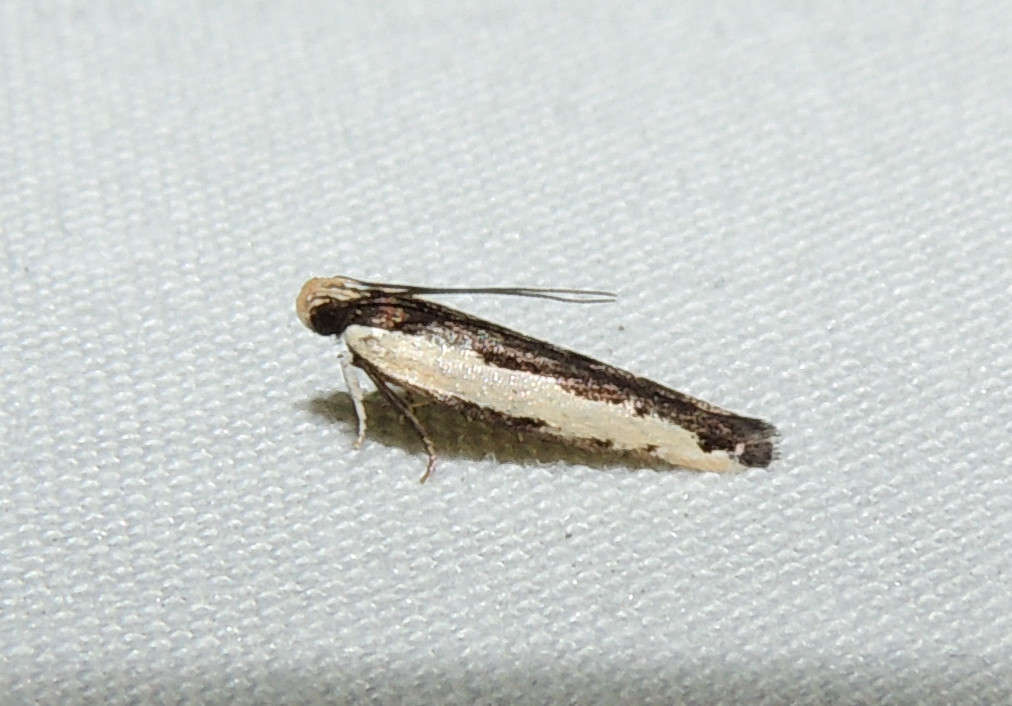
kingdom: Animalia
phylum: Arthropoda
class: Insecta
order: Lepidoptera
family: Gelechiidae
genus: Ardozyga
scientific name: Ardozyga stratifera
